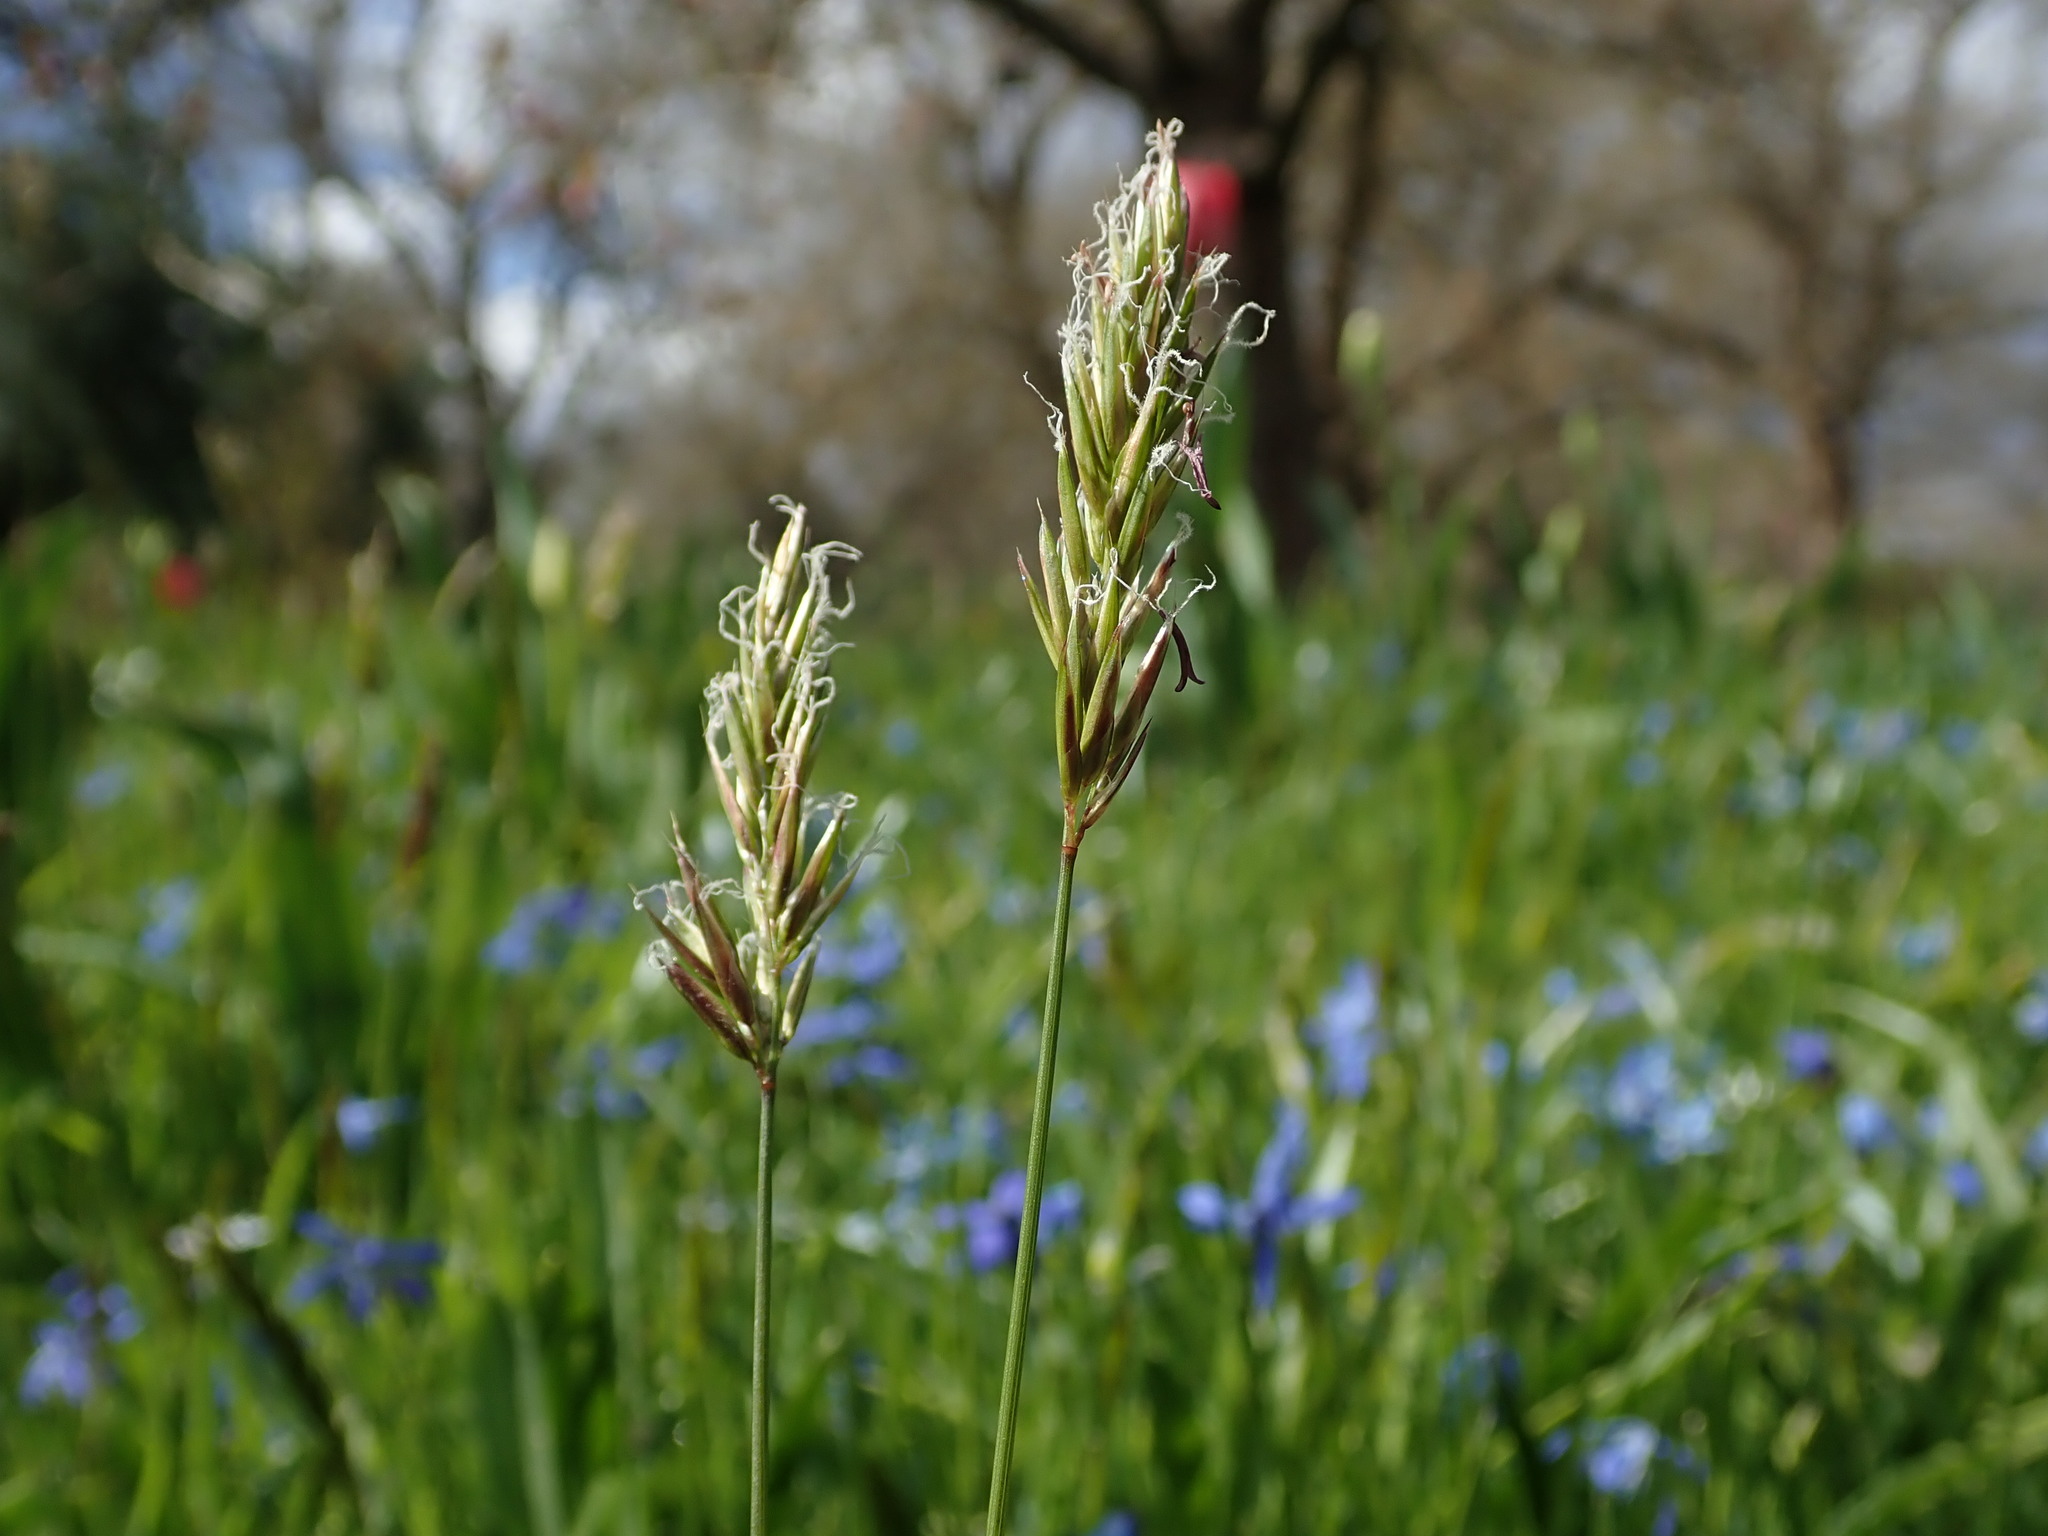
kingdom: Plantae
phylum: Tracheophyta
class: Liliopsida
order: Poales
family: Poaceae
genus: Anthoxanthum
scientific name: Anthoxanthum odoratum
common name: Sweet vernalgrass
